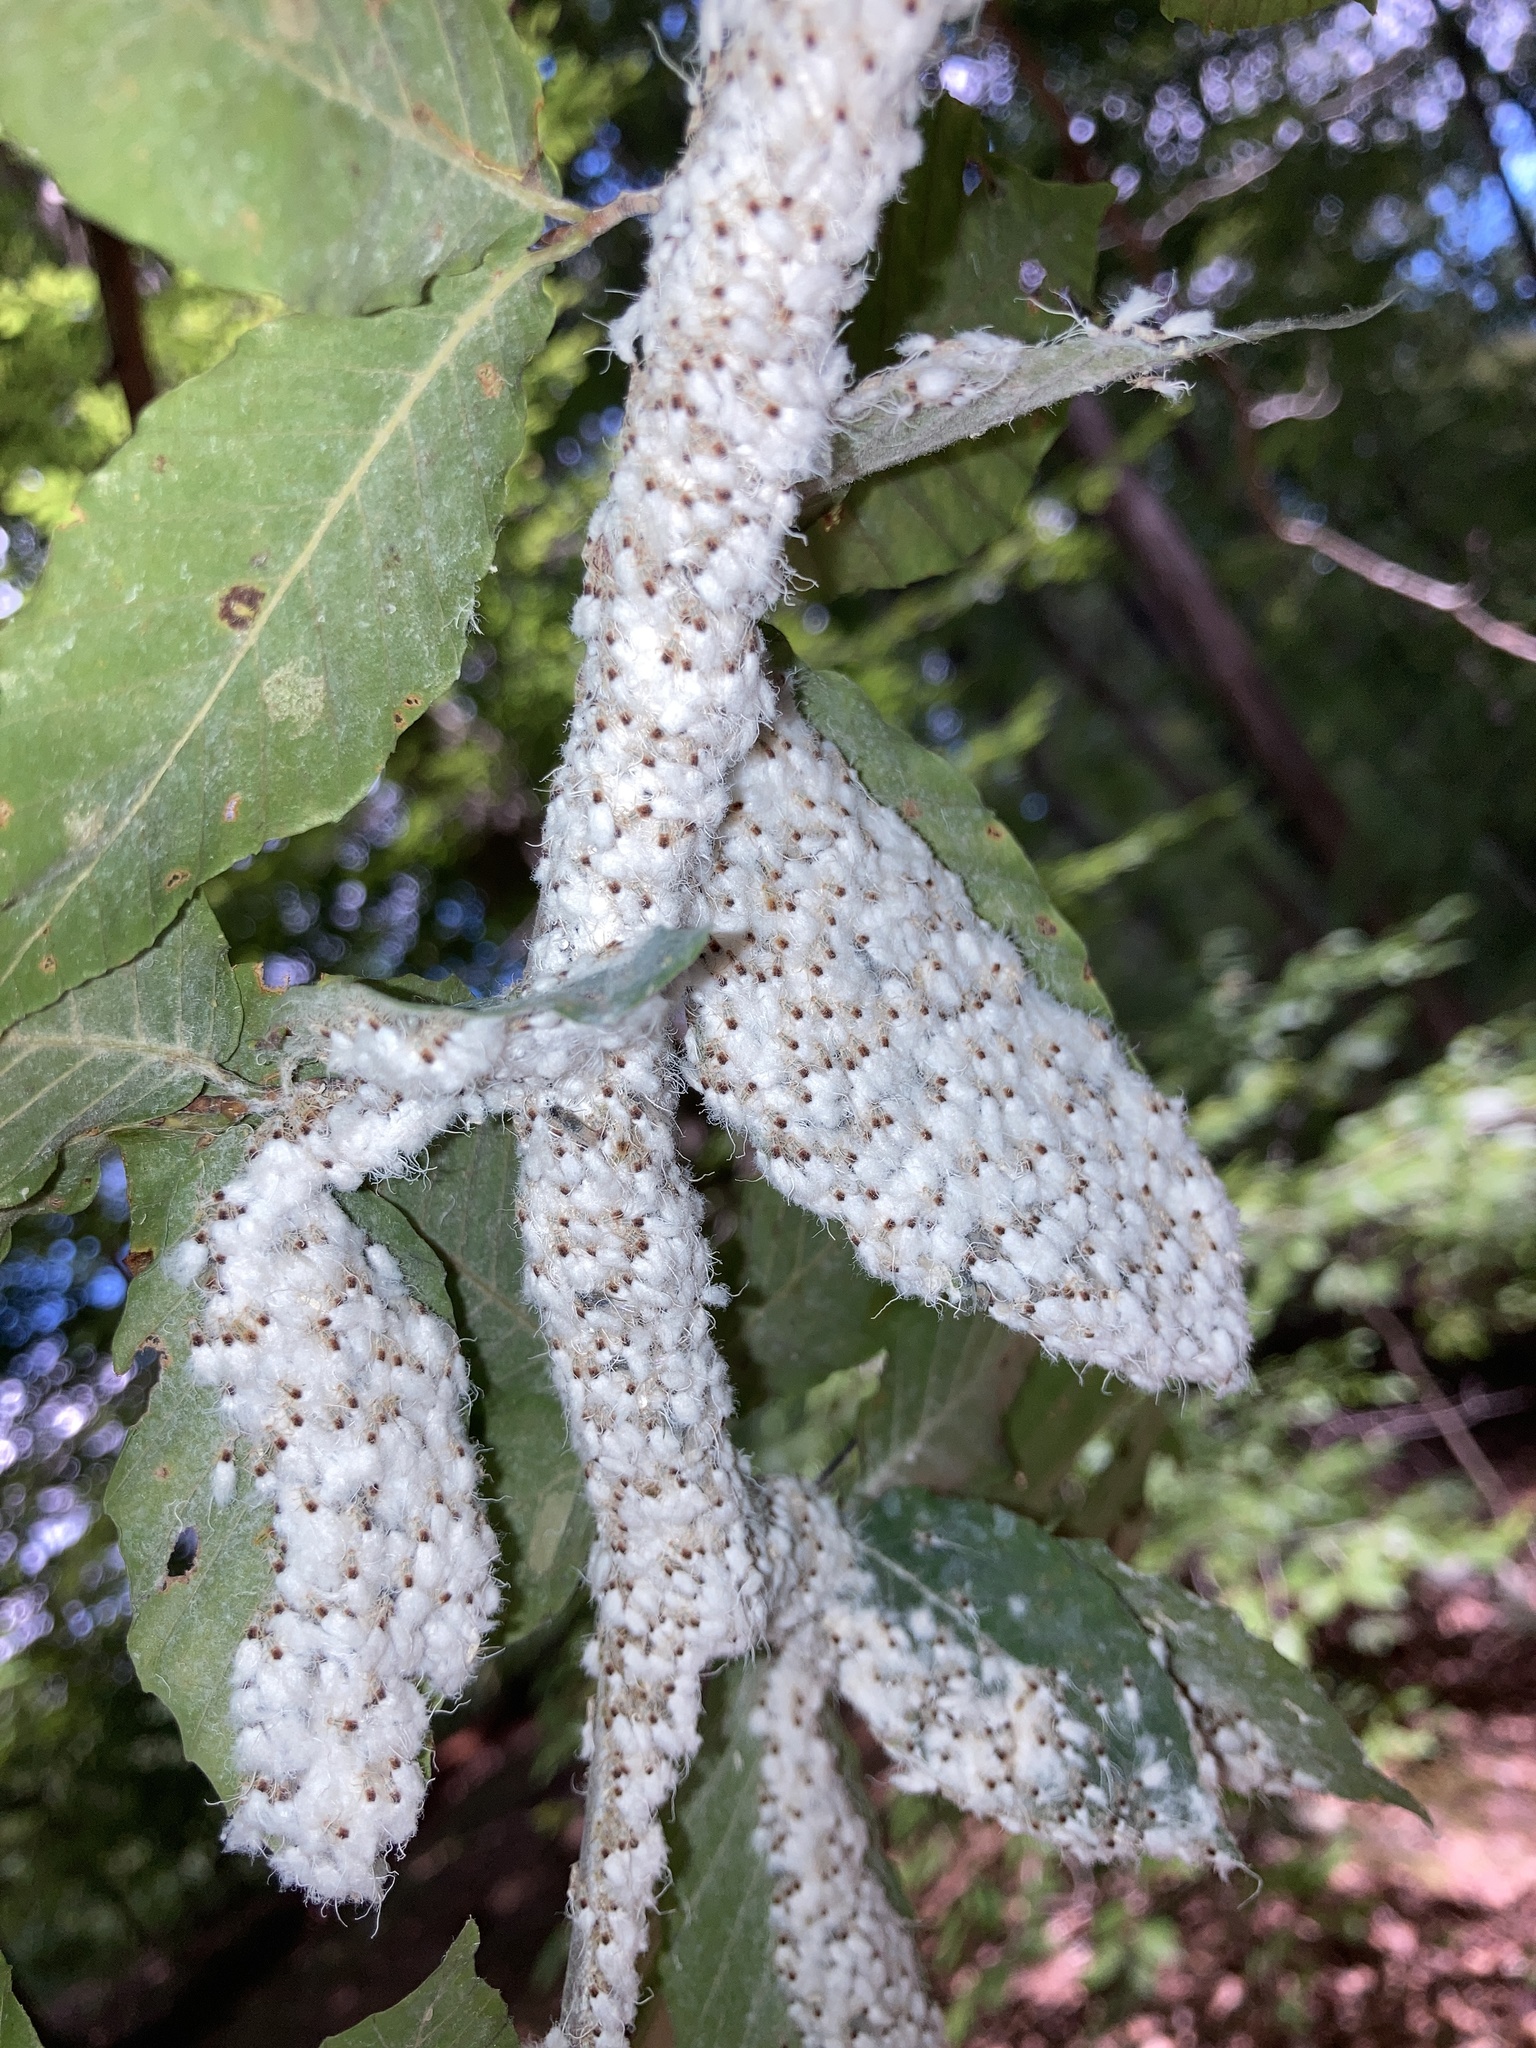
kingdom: Animalia
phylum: Arthropoda
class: Insecta
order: Hemiptera
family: Aphididae
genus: Grylloprociphilus
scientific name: Grylloprociphilus imbricator
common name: Beech blight aphid
